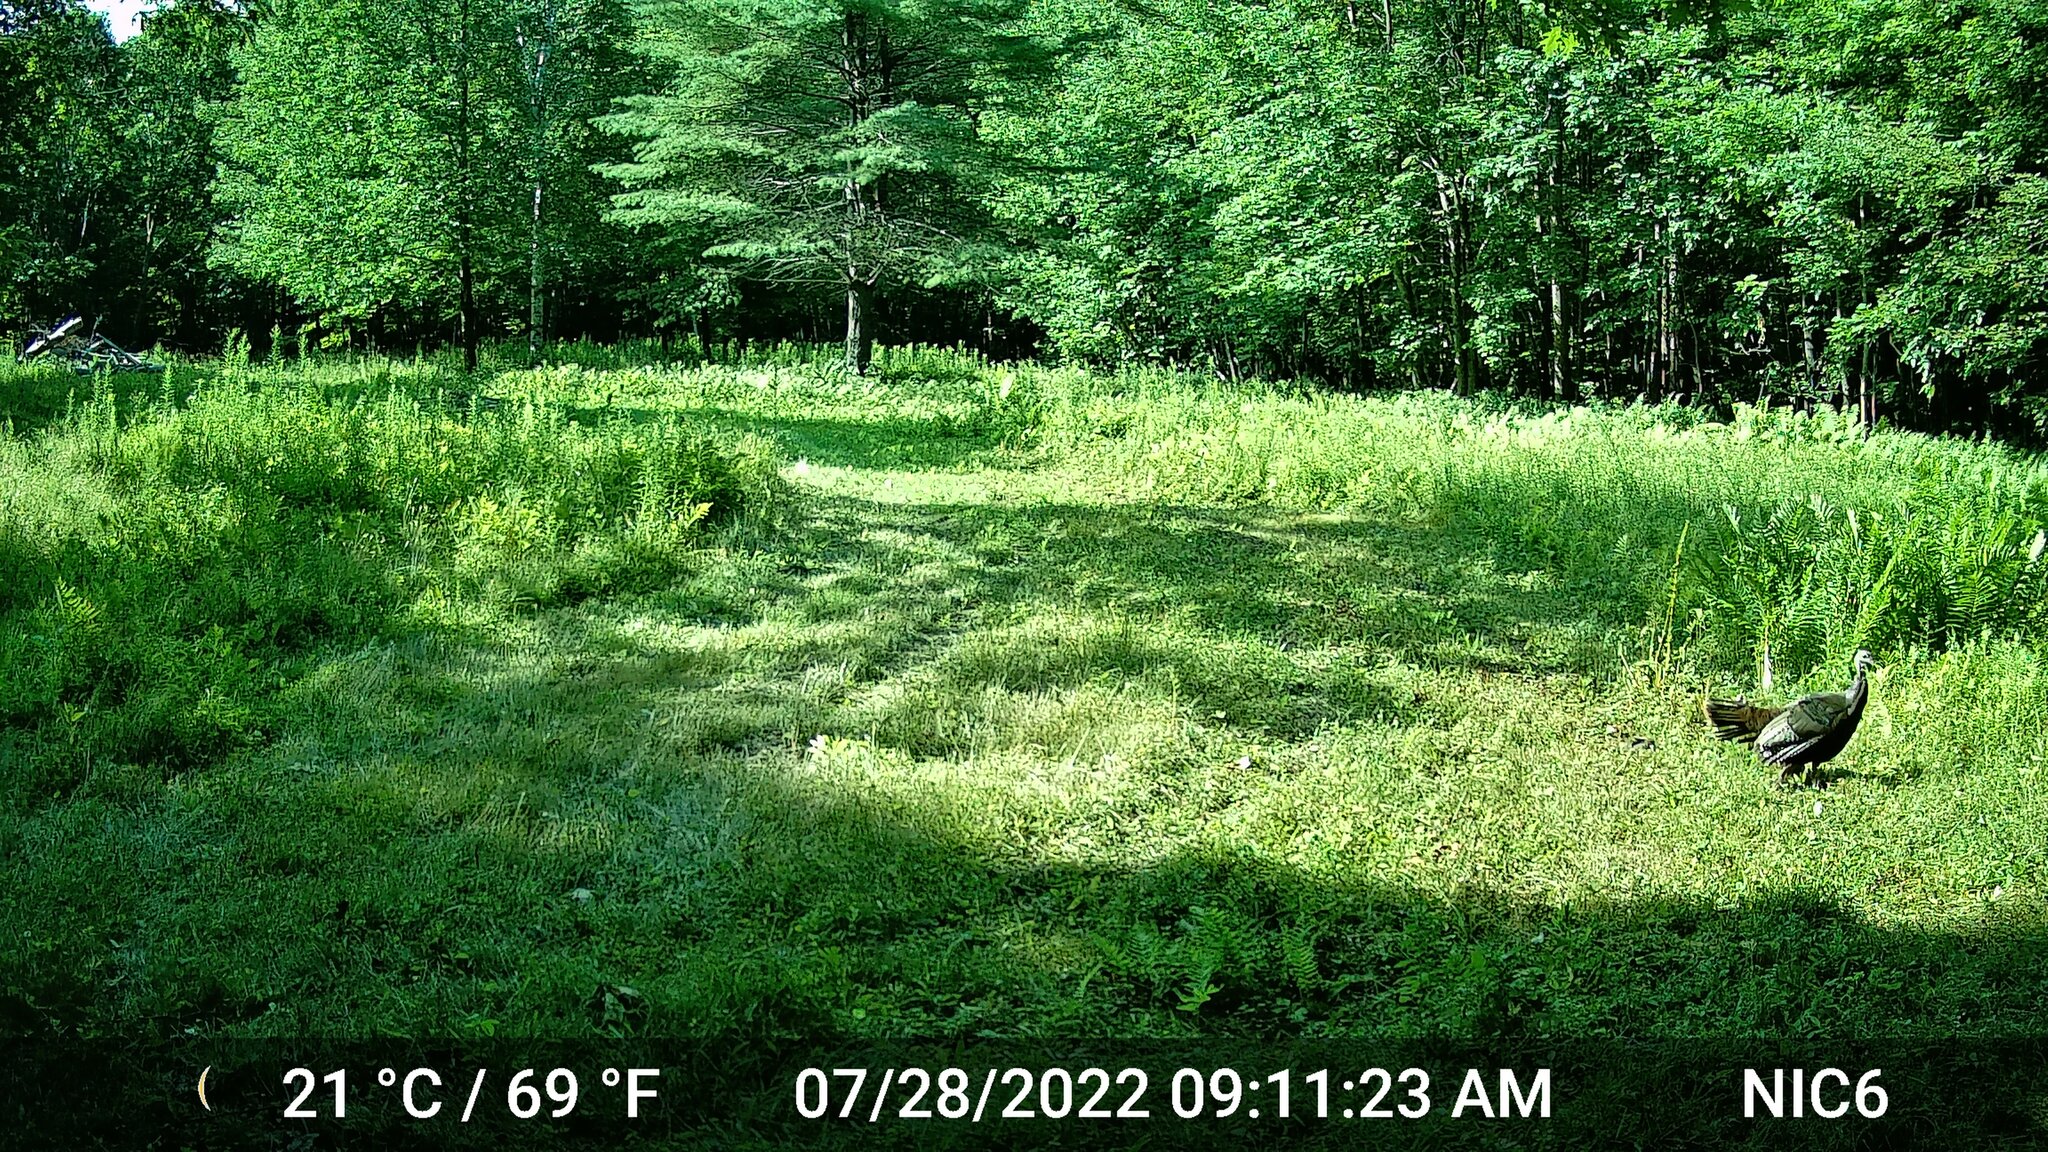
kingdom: Animalia
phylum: Chordata
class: Aves
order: Galliformes
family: Phasianidae
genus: Meleagris
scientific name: Meleagris gallopavo
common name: Wild turkey
